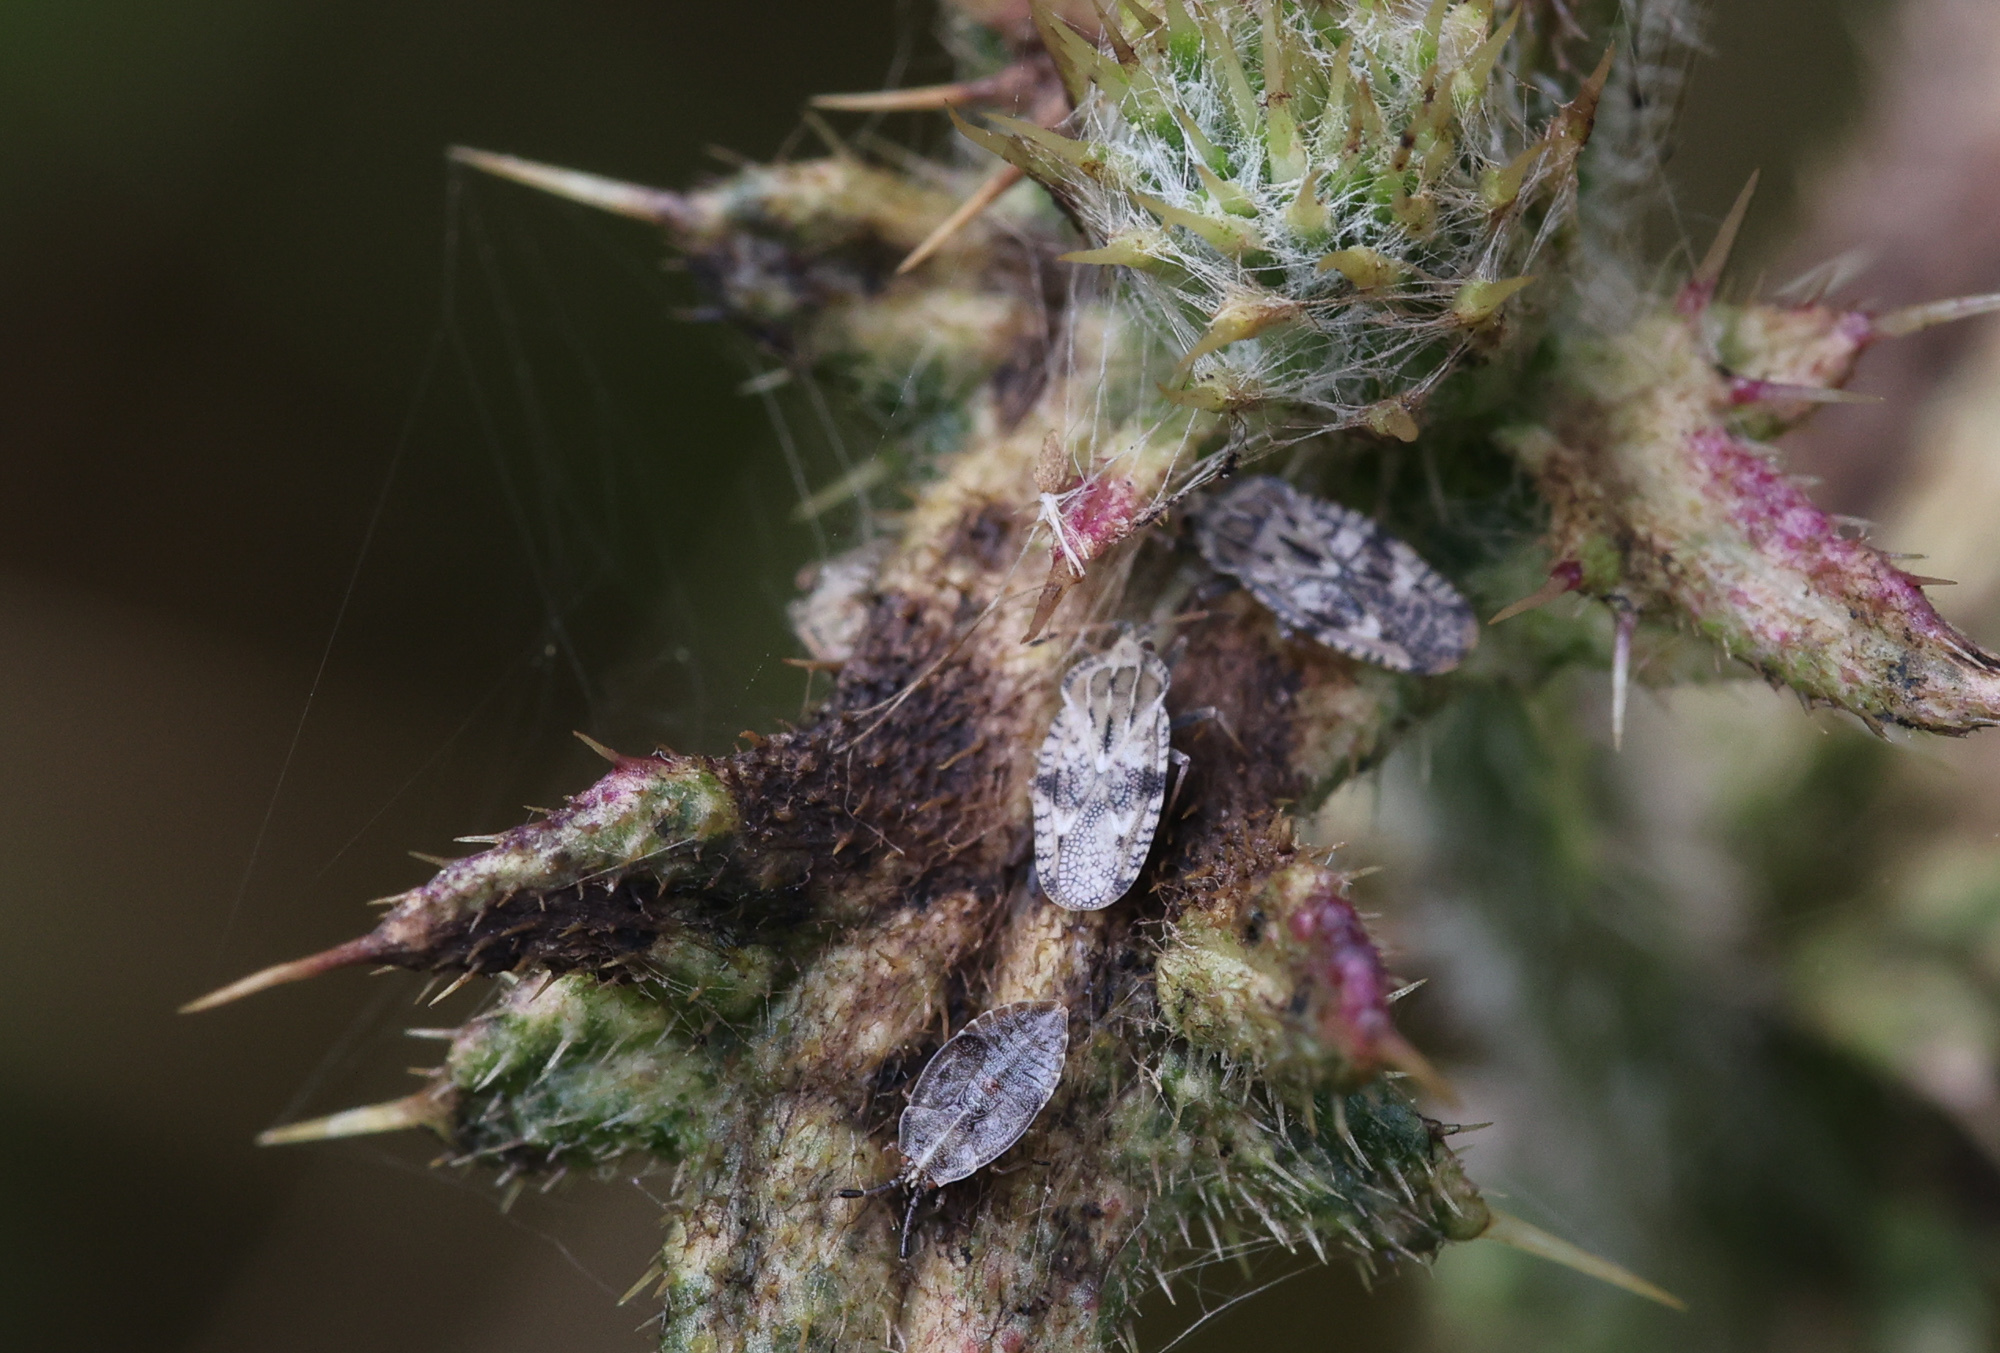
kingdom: Animalia
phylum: Arthropoda
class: Insecta
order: Hemiptera
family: Tingidae
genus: Tingis
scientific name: Tingis cardui
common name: Spear thistle lacebug
